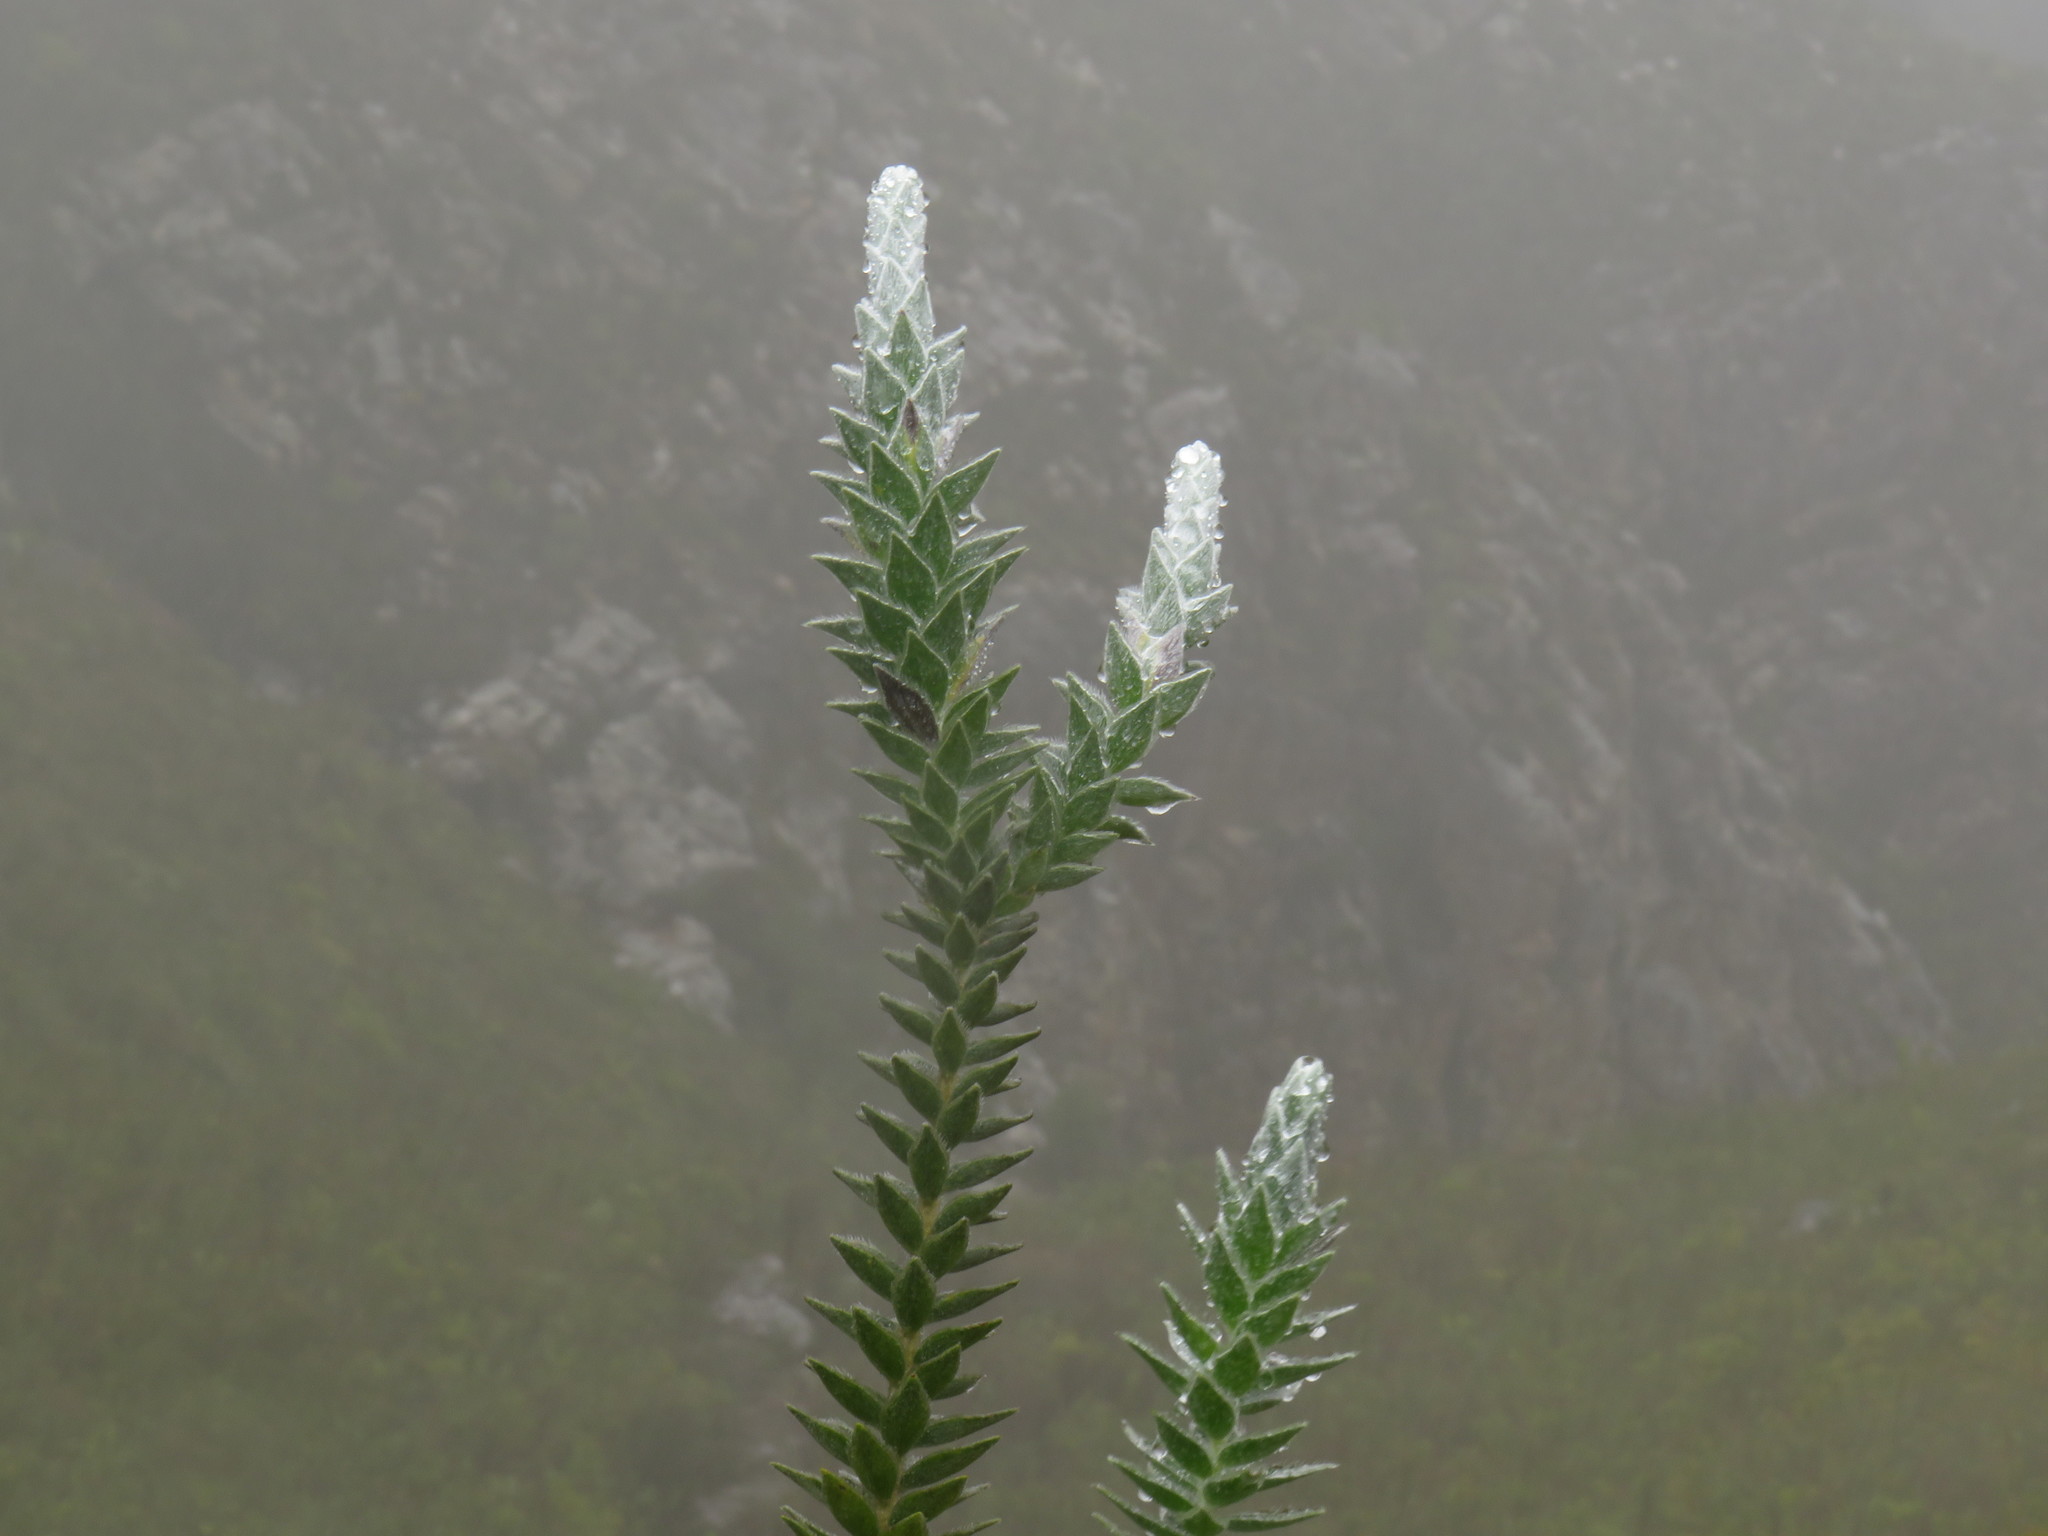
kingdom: Plantae
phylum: Tracheophyta
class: Magnoliopsida
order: Fabales
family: Fabaceae
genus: Liparia
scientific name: Liparia vestita
